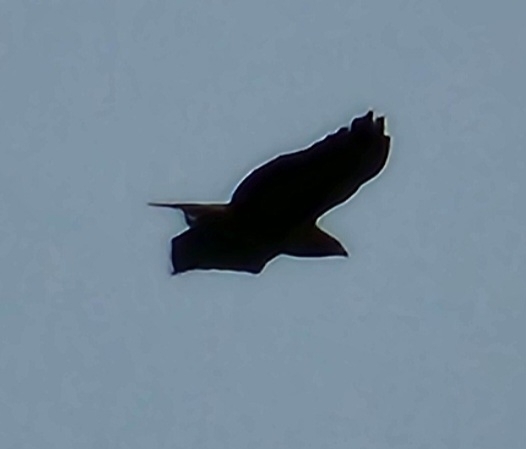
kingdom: Animalia
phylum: Chordata
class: Aves
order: Accipitriformes
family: Accipitridae
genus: Buteo
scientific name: Buteo jamaicensis
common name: Red-tailed hawk
